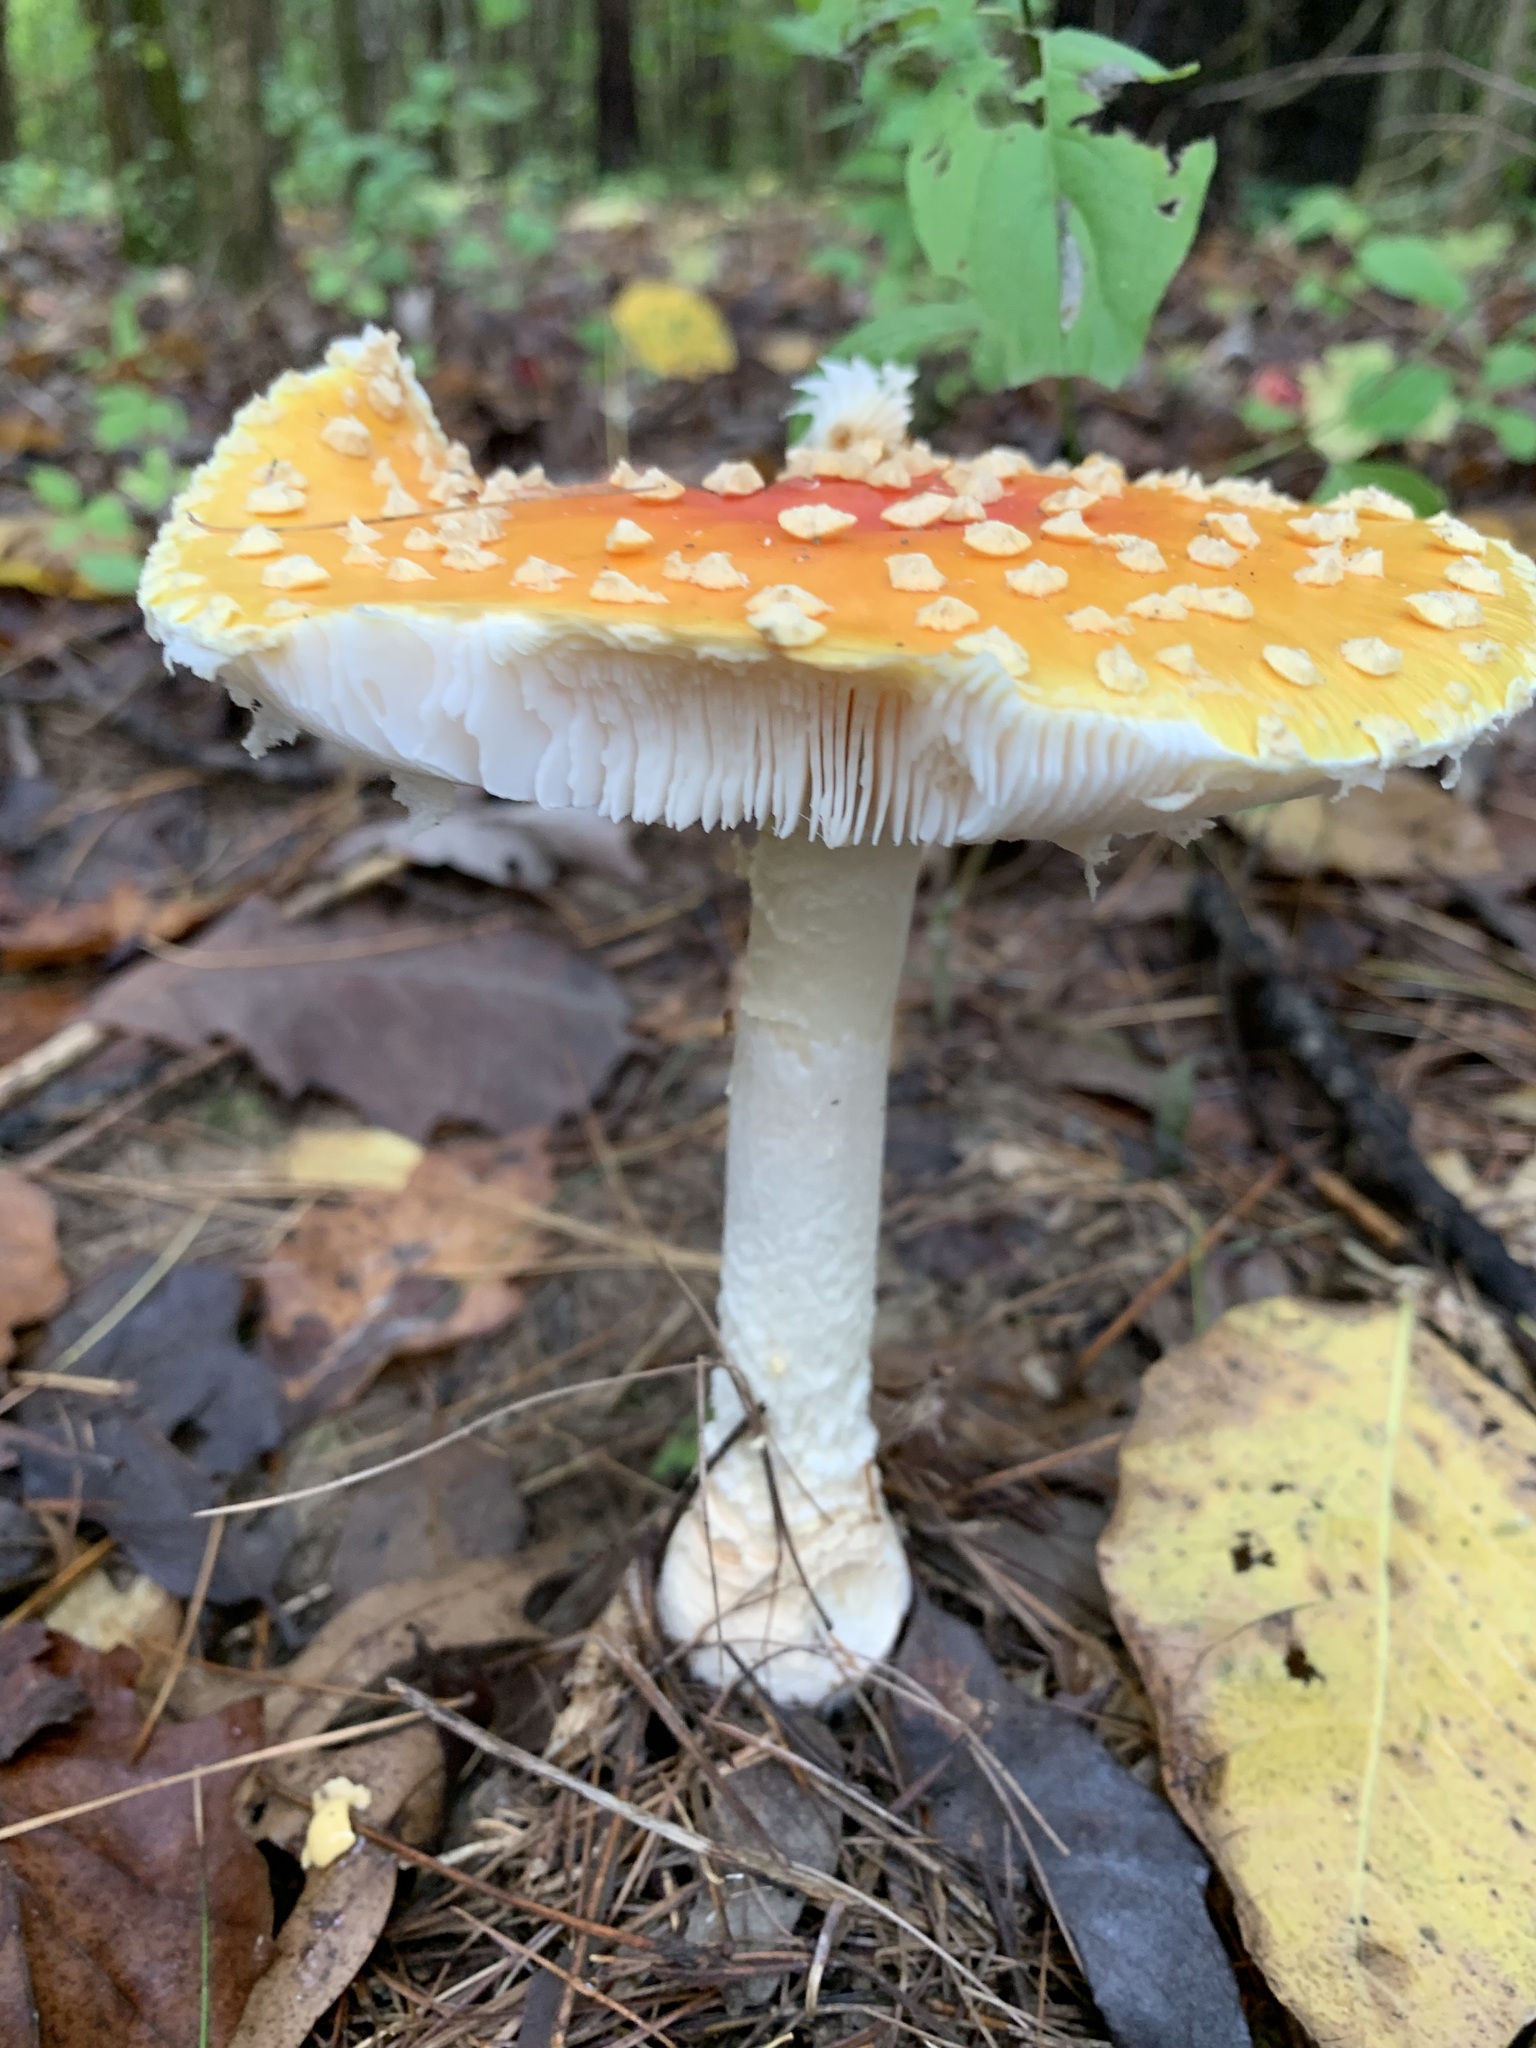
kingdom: Fungi
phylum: Basidiomycota
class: Agaricomycetes
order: Agaricales
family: Amanitaceae
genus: Amanita
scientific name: Amanita muscaria
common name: Fly agaric
